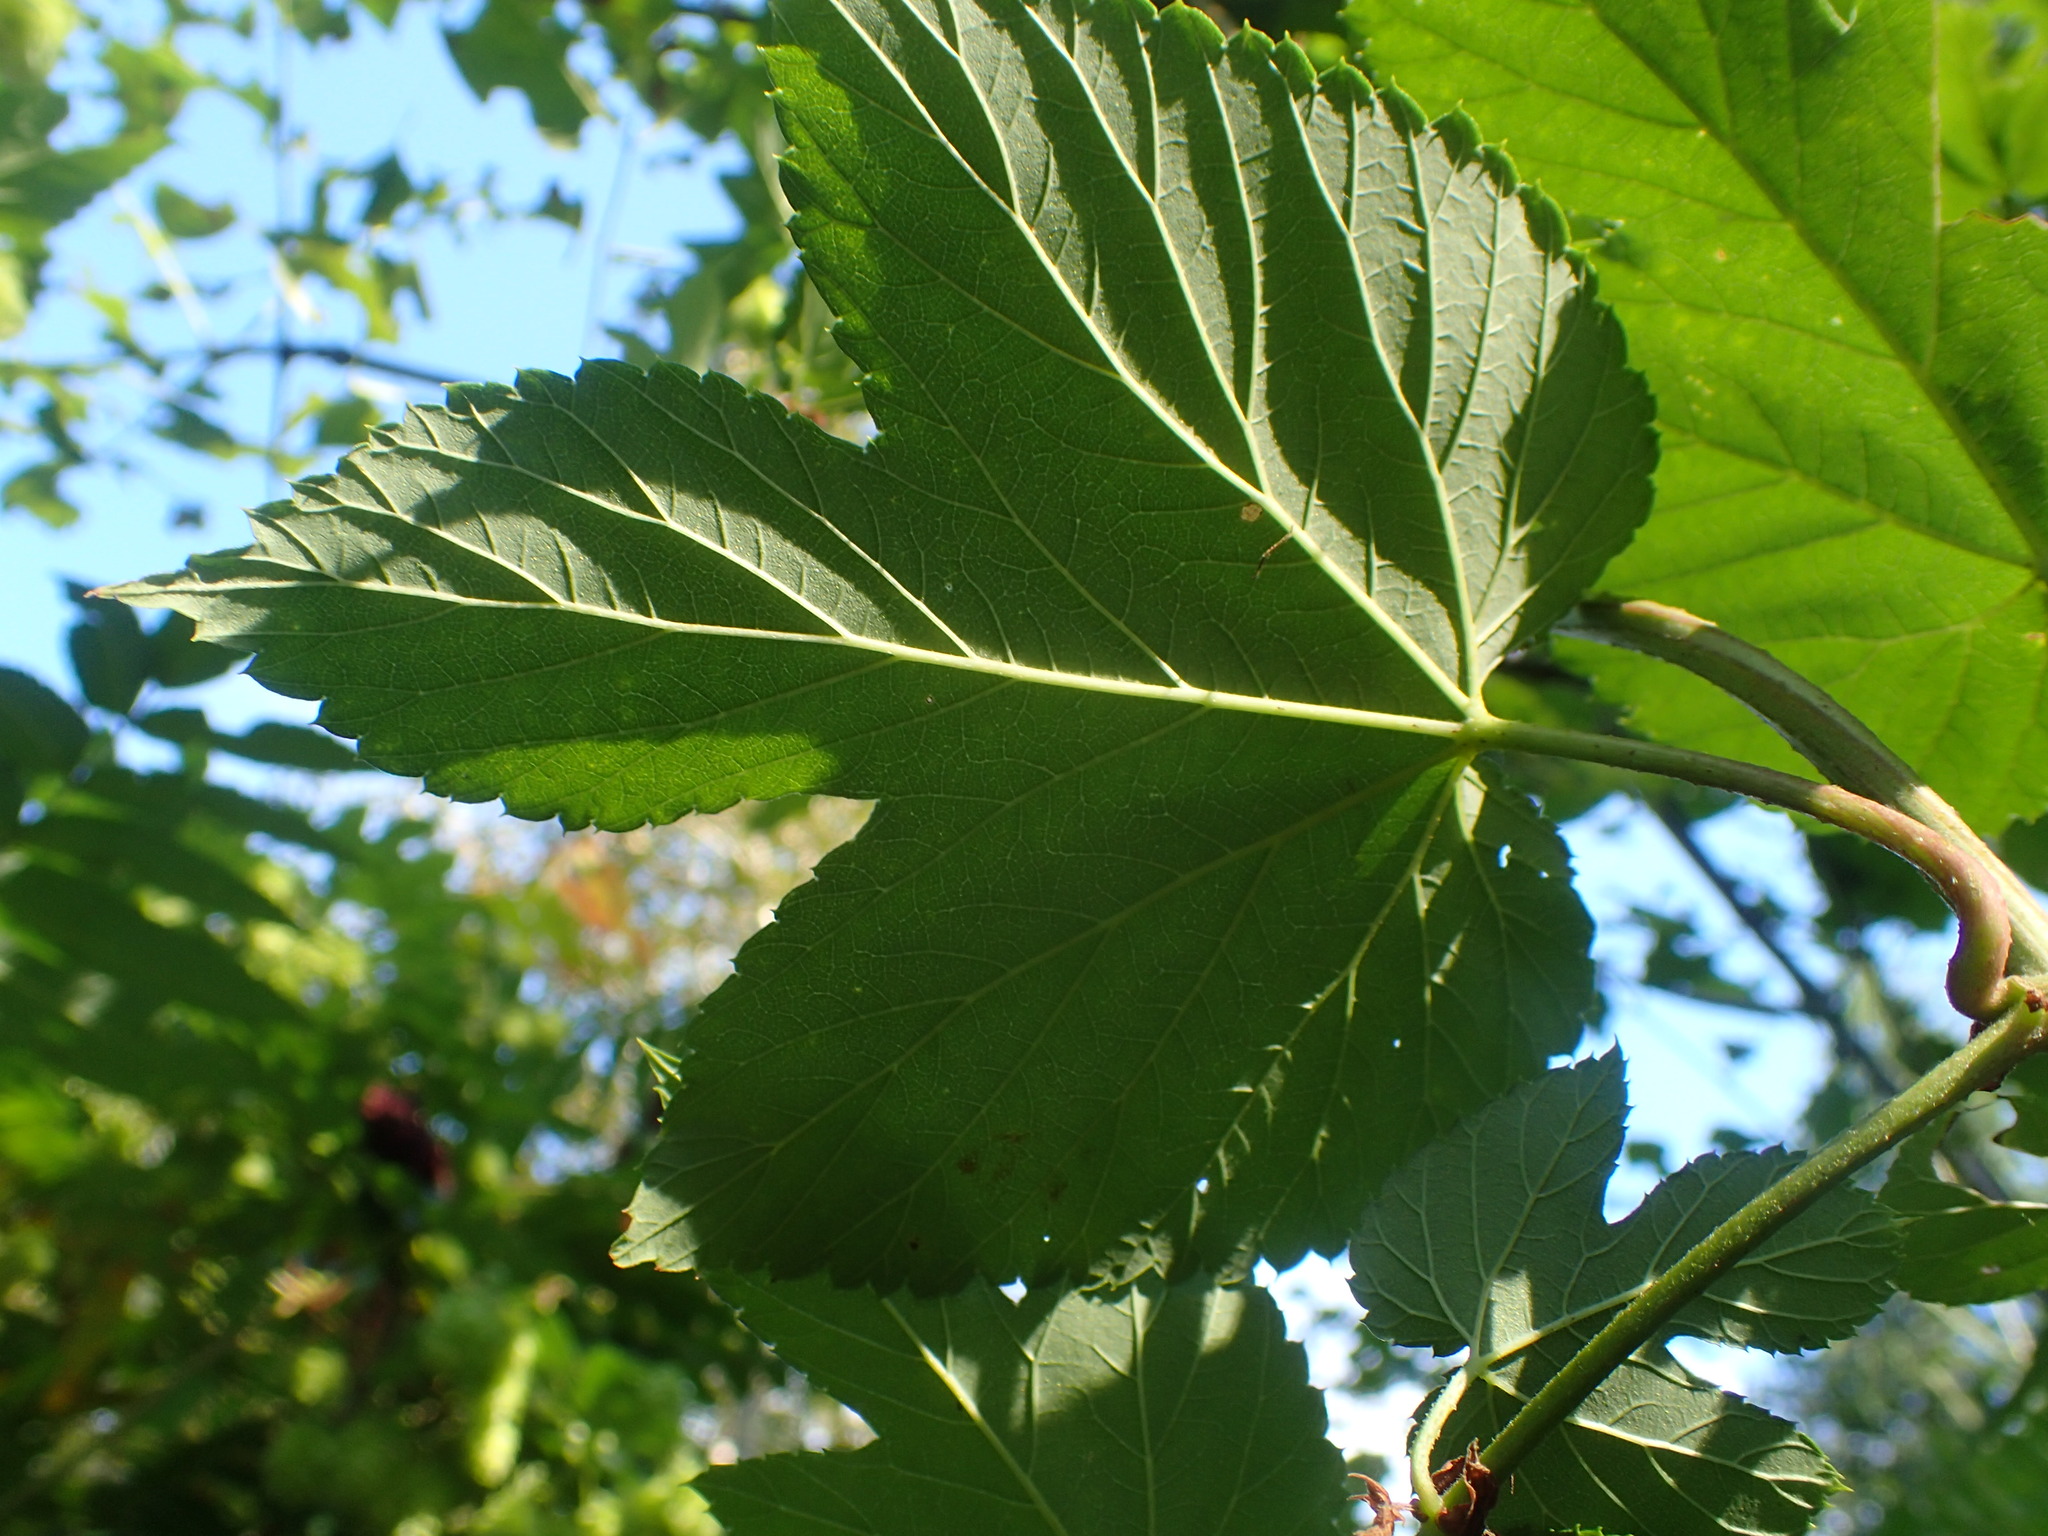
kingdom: Plantae
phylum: Tracheophyta
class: Magnoliopsida
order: Rosales
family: Cannabaceae
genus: Humulus
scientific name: Humulus lupulus
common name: Hop
